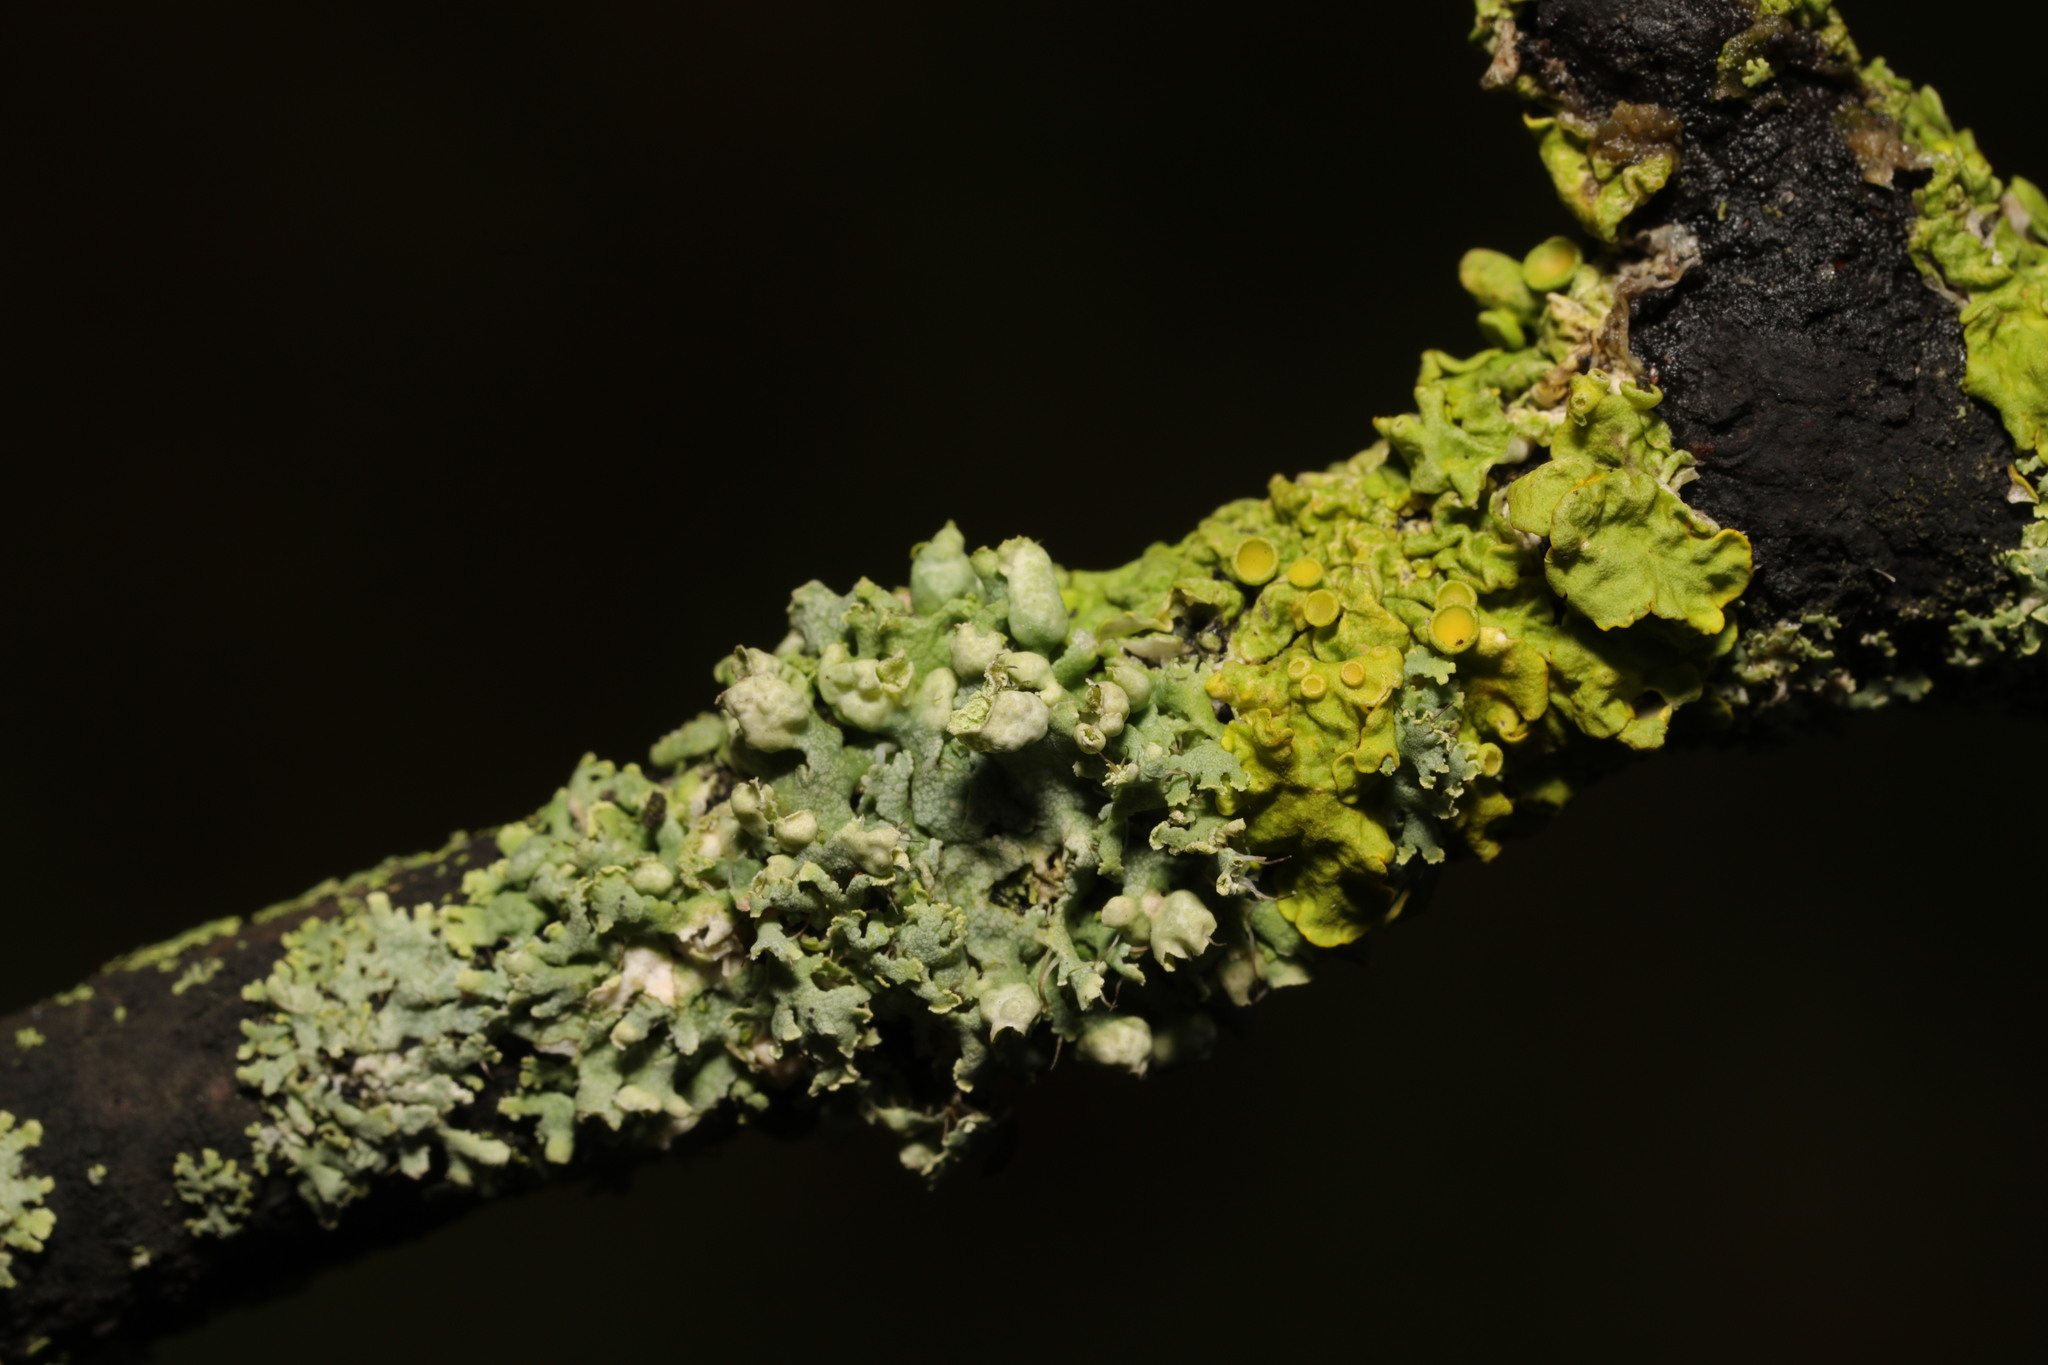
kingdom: Fungi
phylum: Ascomycota
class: Lecanoromycetes
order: Caliciales
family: Physciaceae
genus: Physcia
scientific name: Physcia adscendens
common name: Hooded rosette lichen
